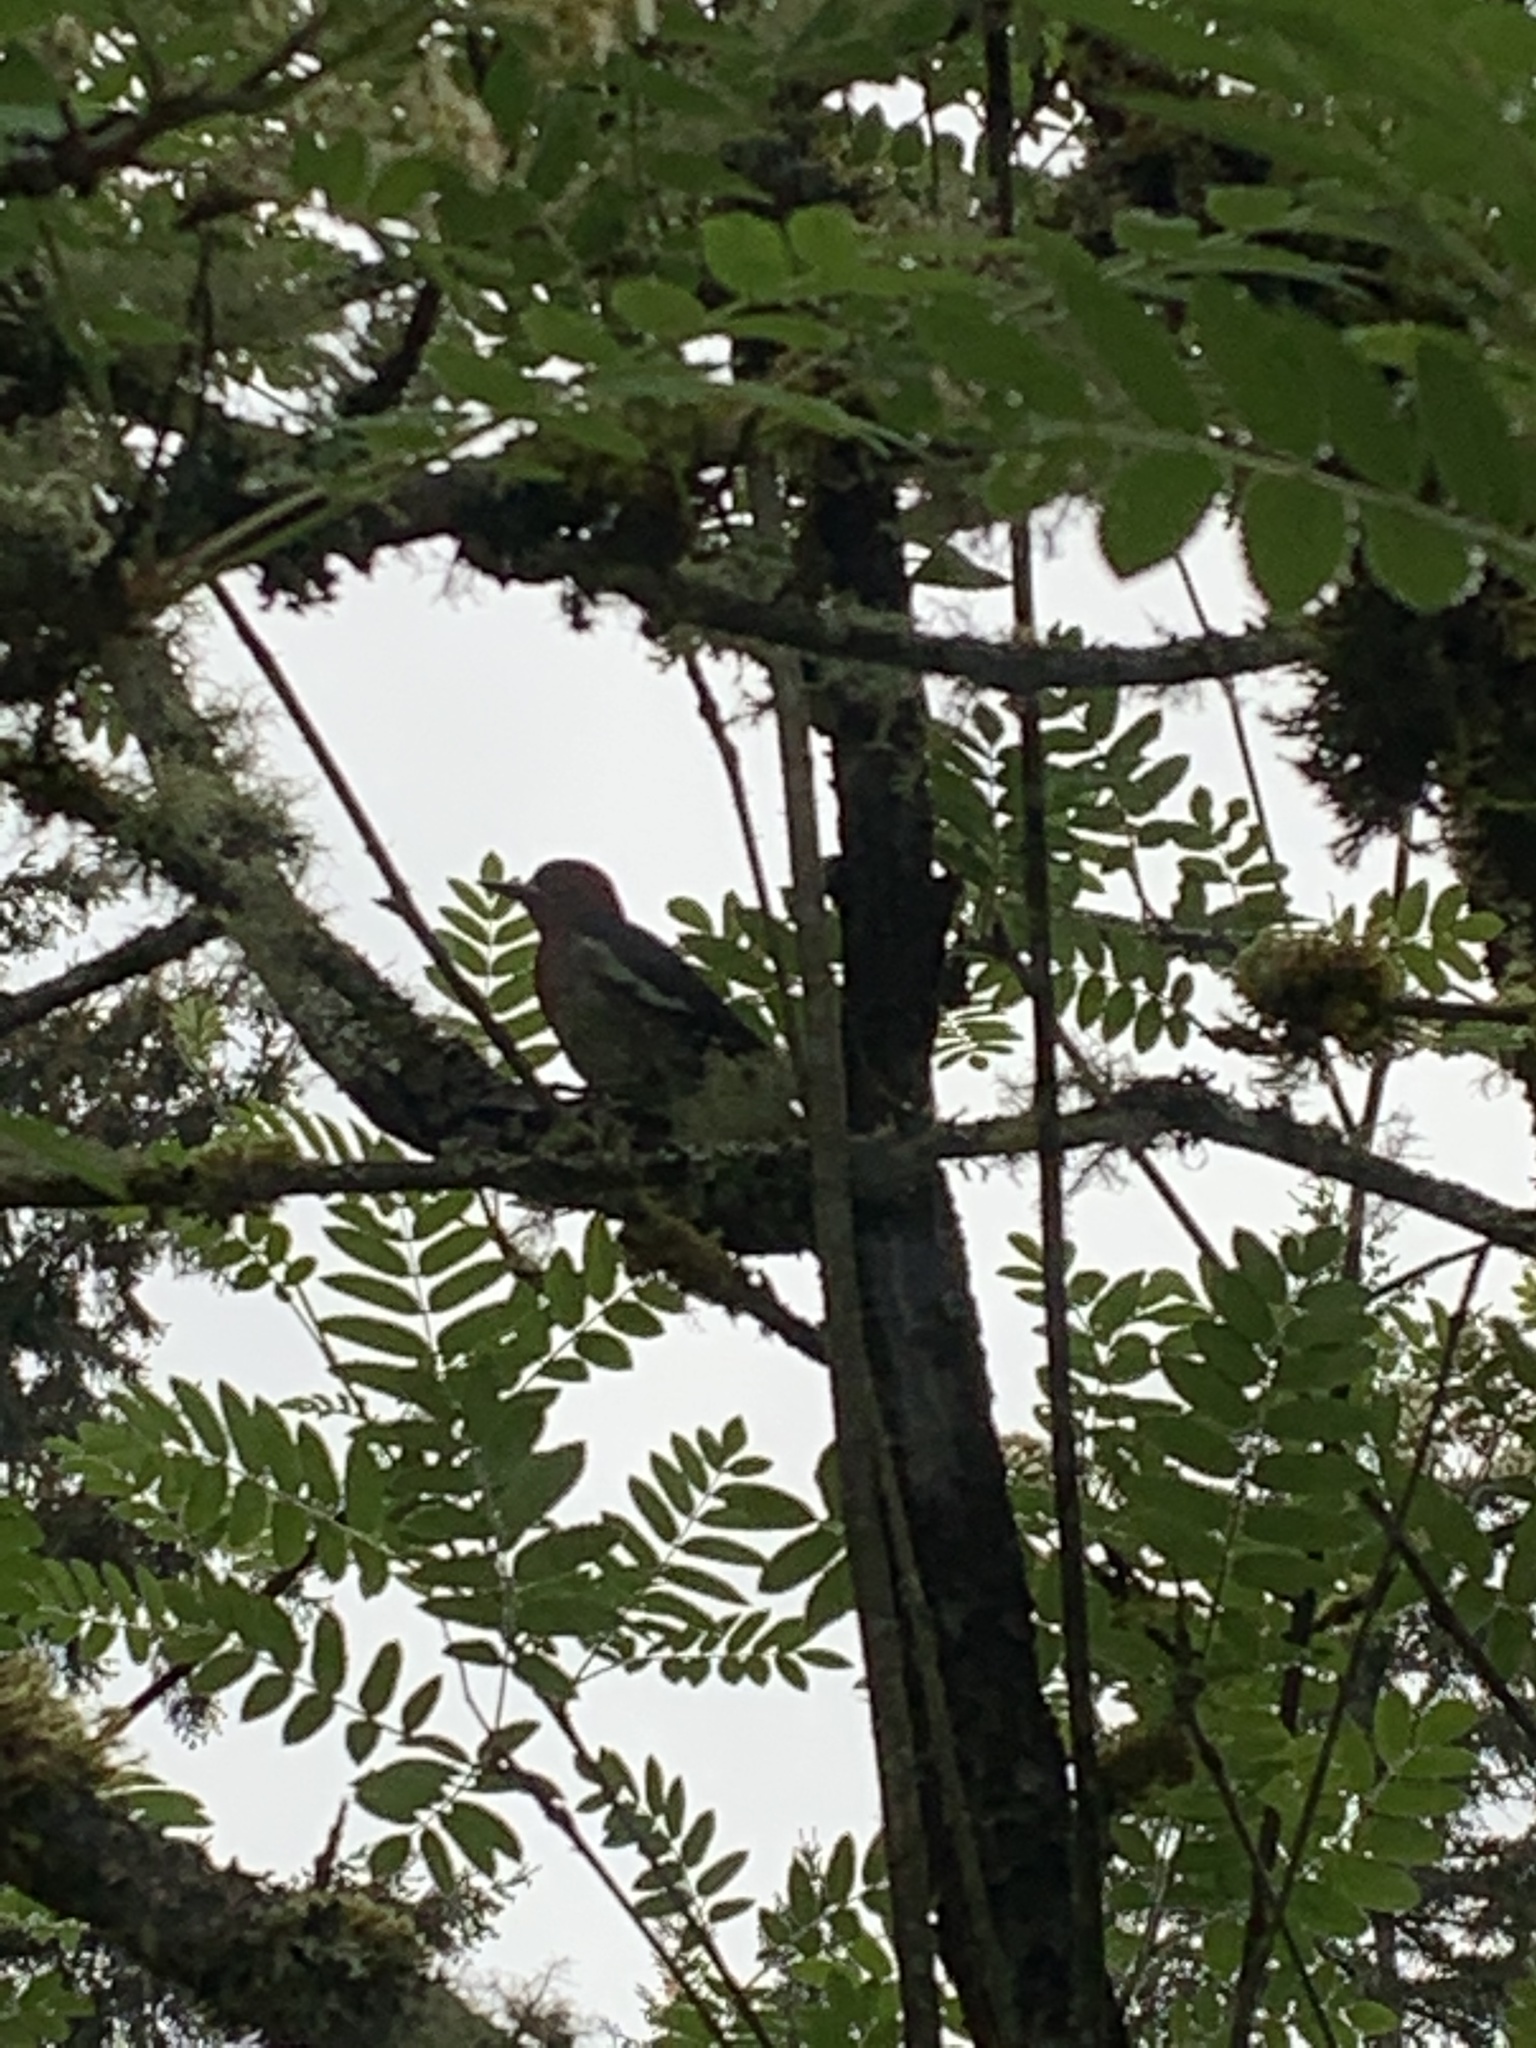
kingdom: Animalia
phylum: Chordata
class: Aves
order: Piciformes
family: Picidae
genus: Sphyrapicus
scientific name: Sphyrapicus ruber
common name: Red-breasted sapsucker
